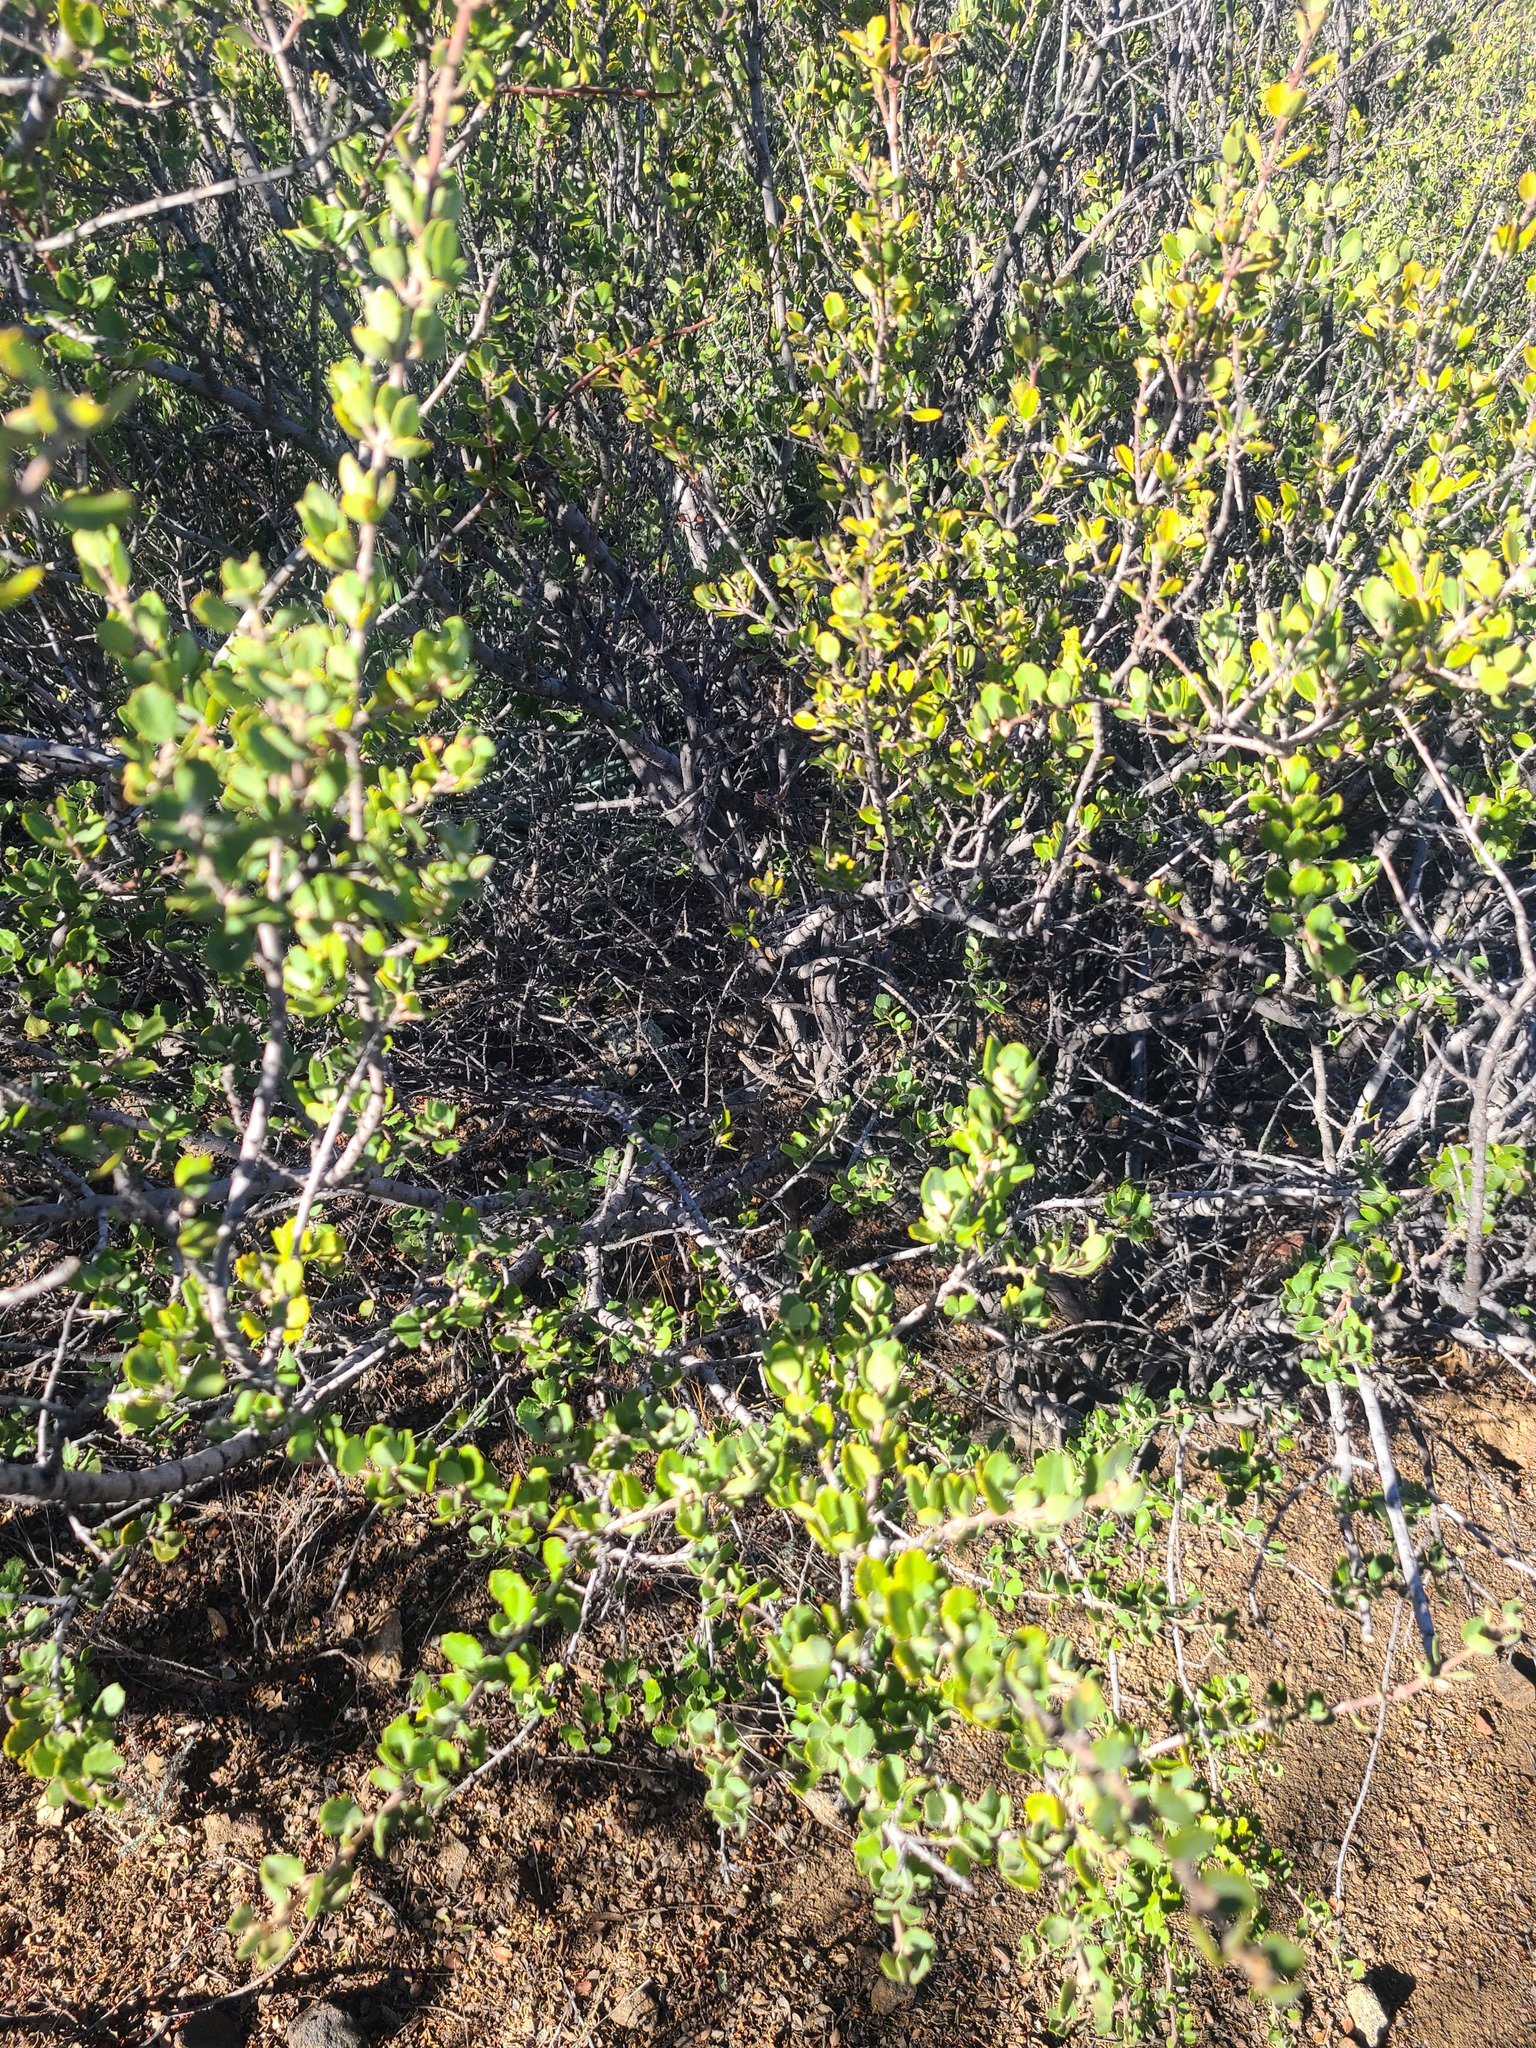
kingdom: Plantae
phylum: Tracheophyta
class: Magnoliopsida
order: Rosales
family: Rhamnaceae
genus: Ceanothus
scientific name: Ceanothus perplexans
